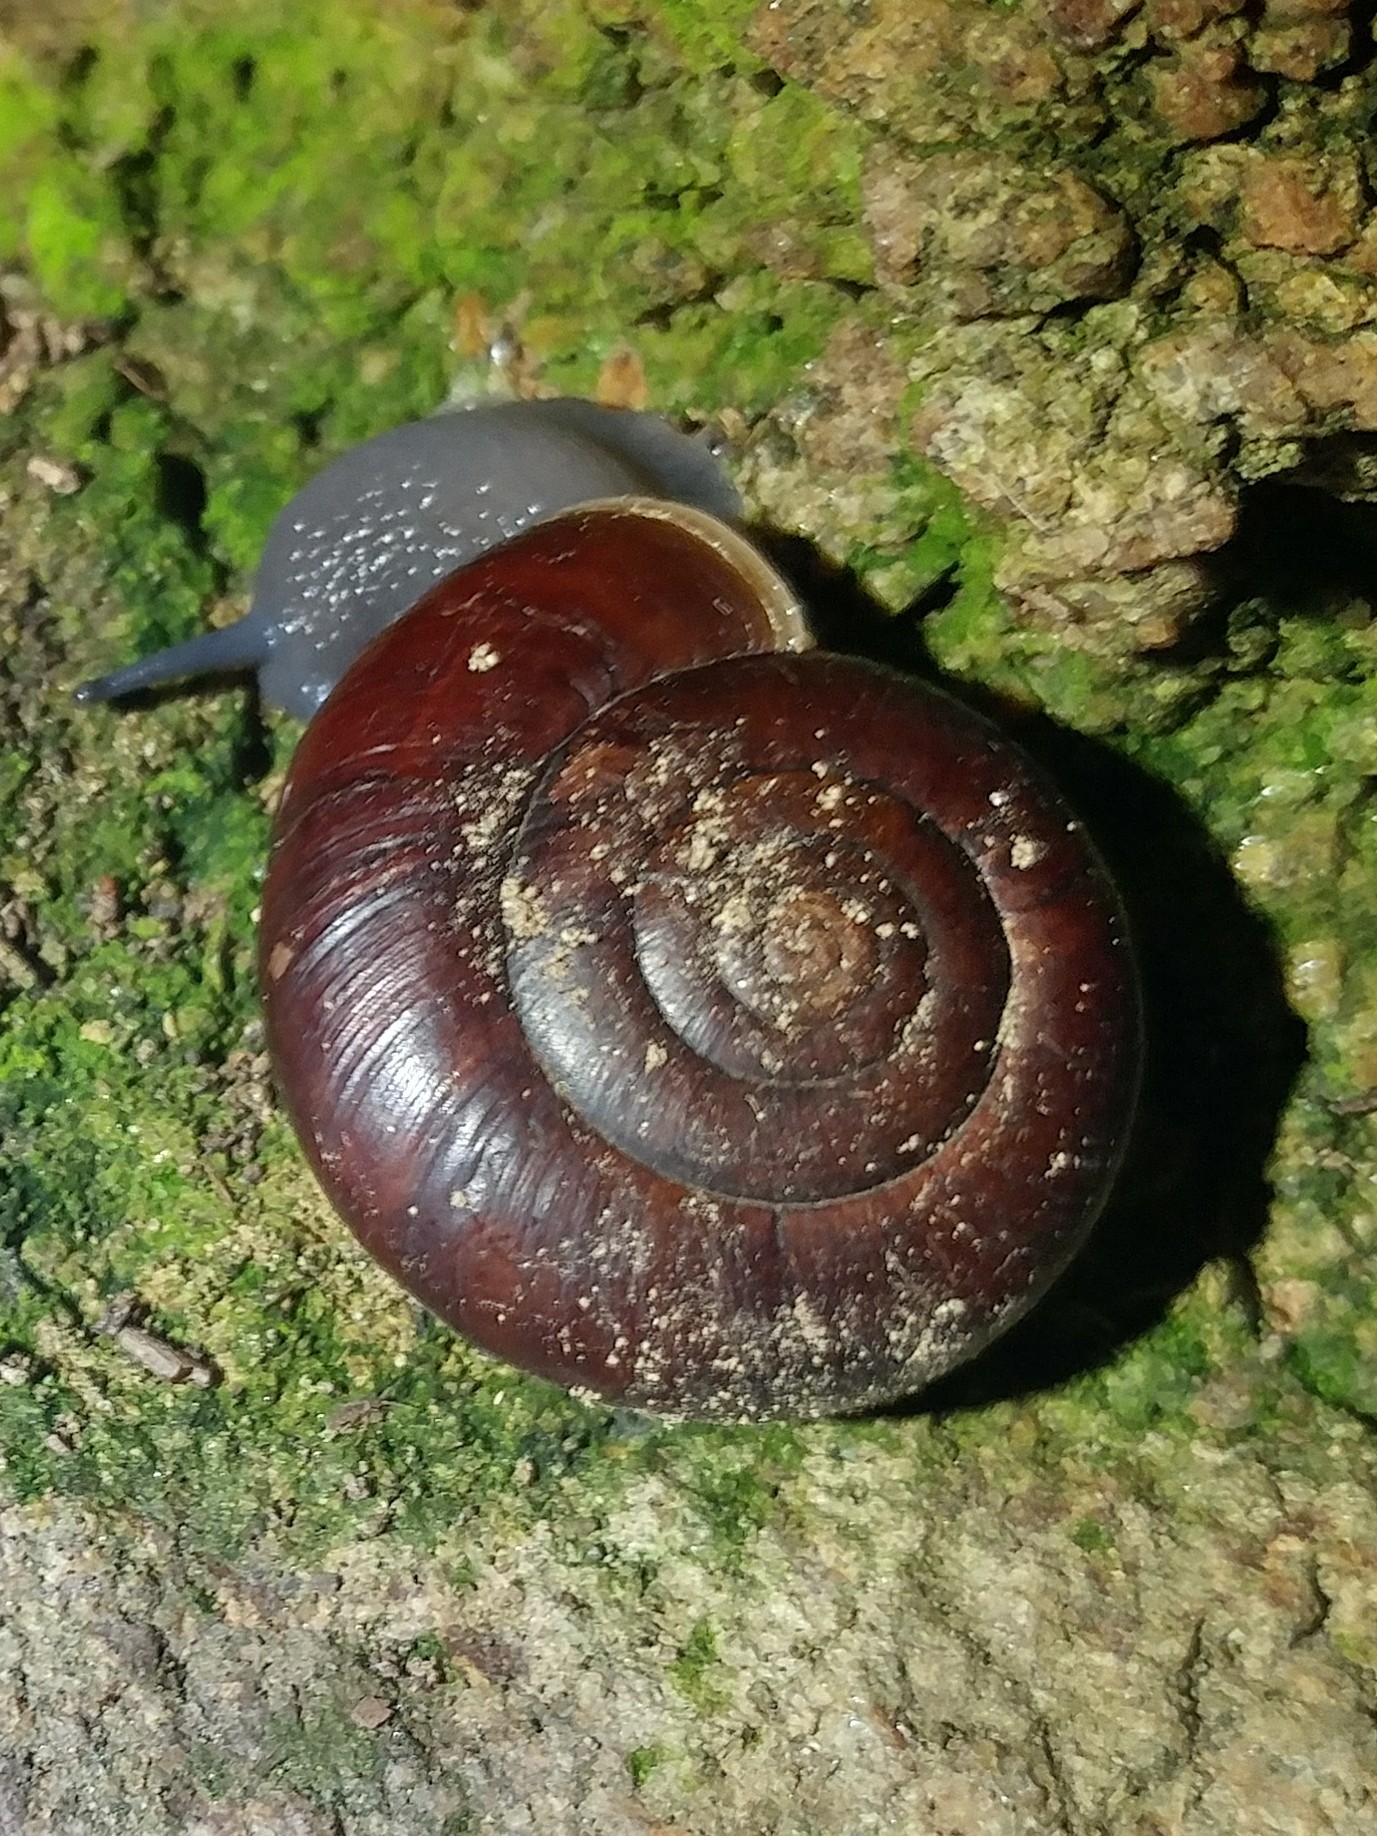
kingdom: Animalia
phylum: Mollusca
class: Gastropoda
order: Stylommatophora
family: Megomphicidae
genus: Glyptostoma
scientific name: Glyptostoma newberryanum
